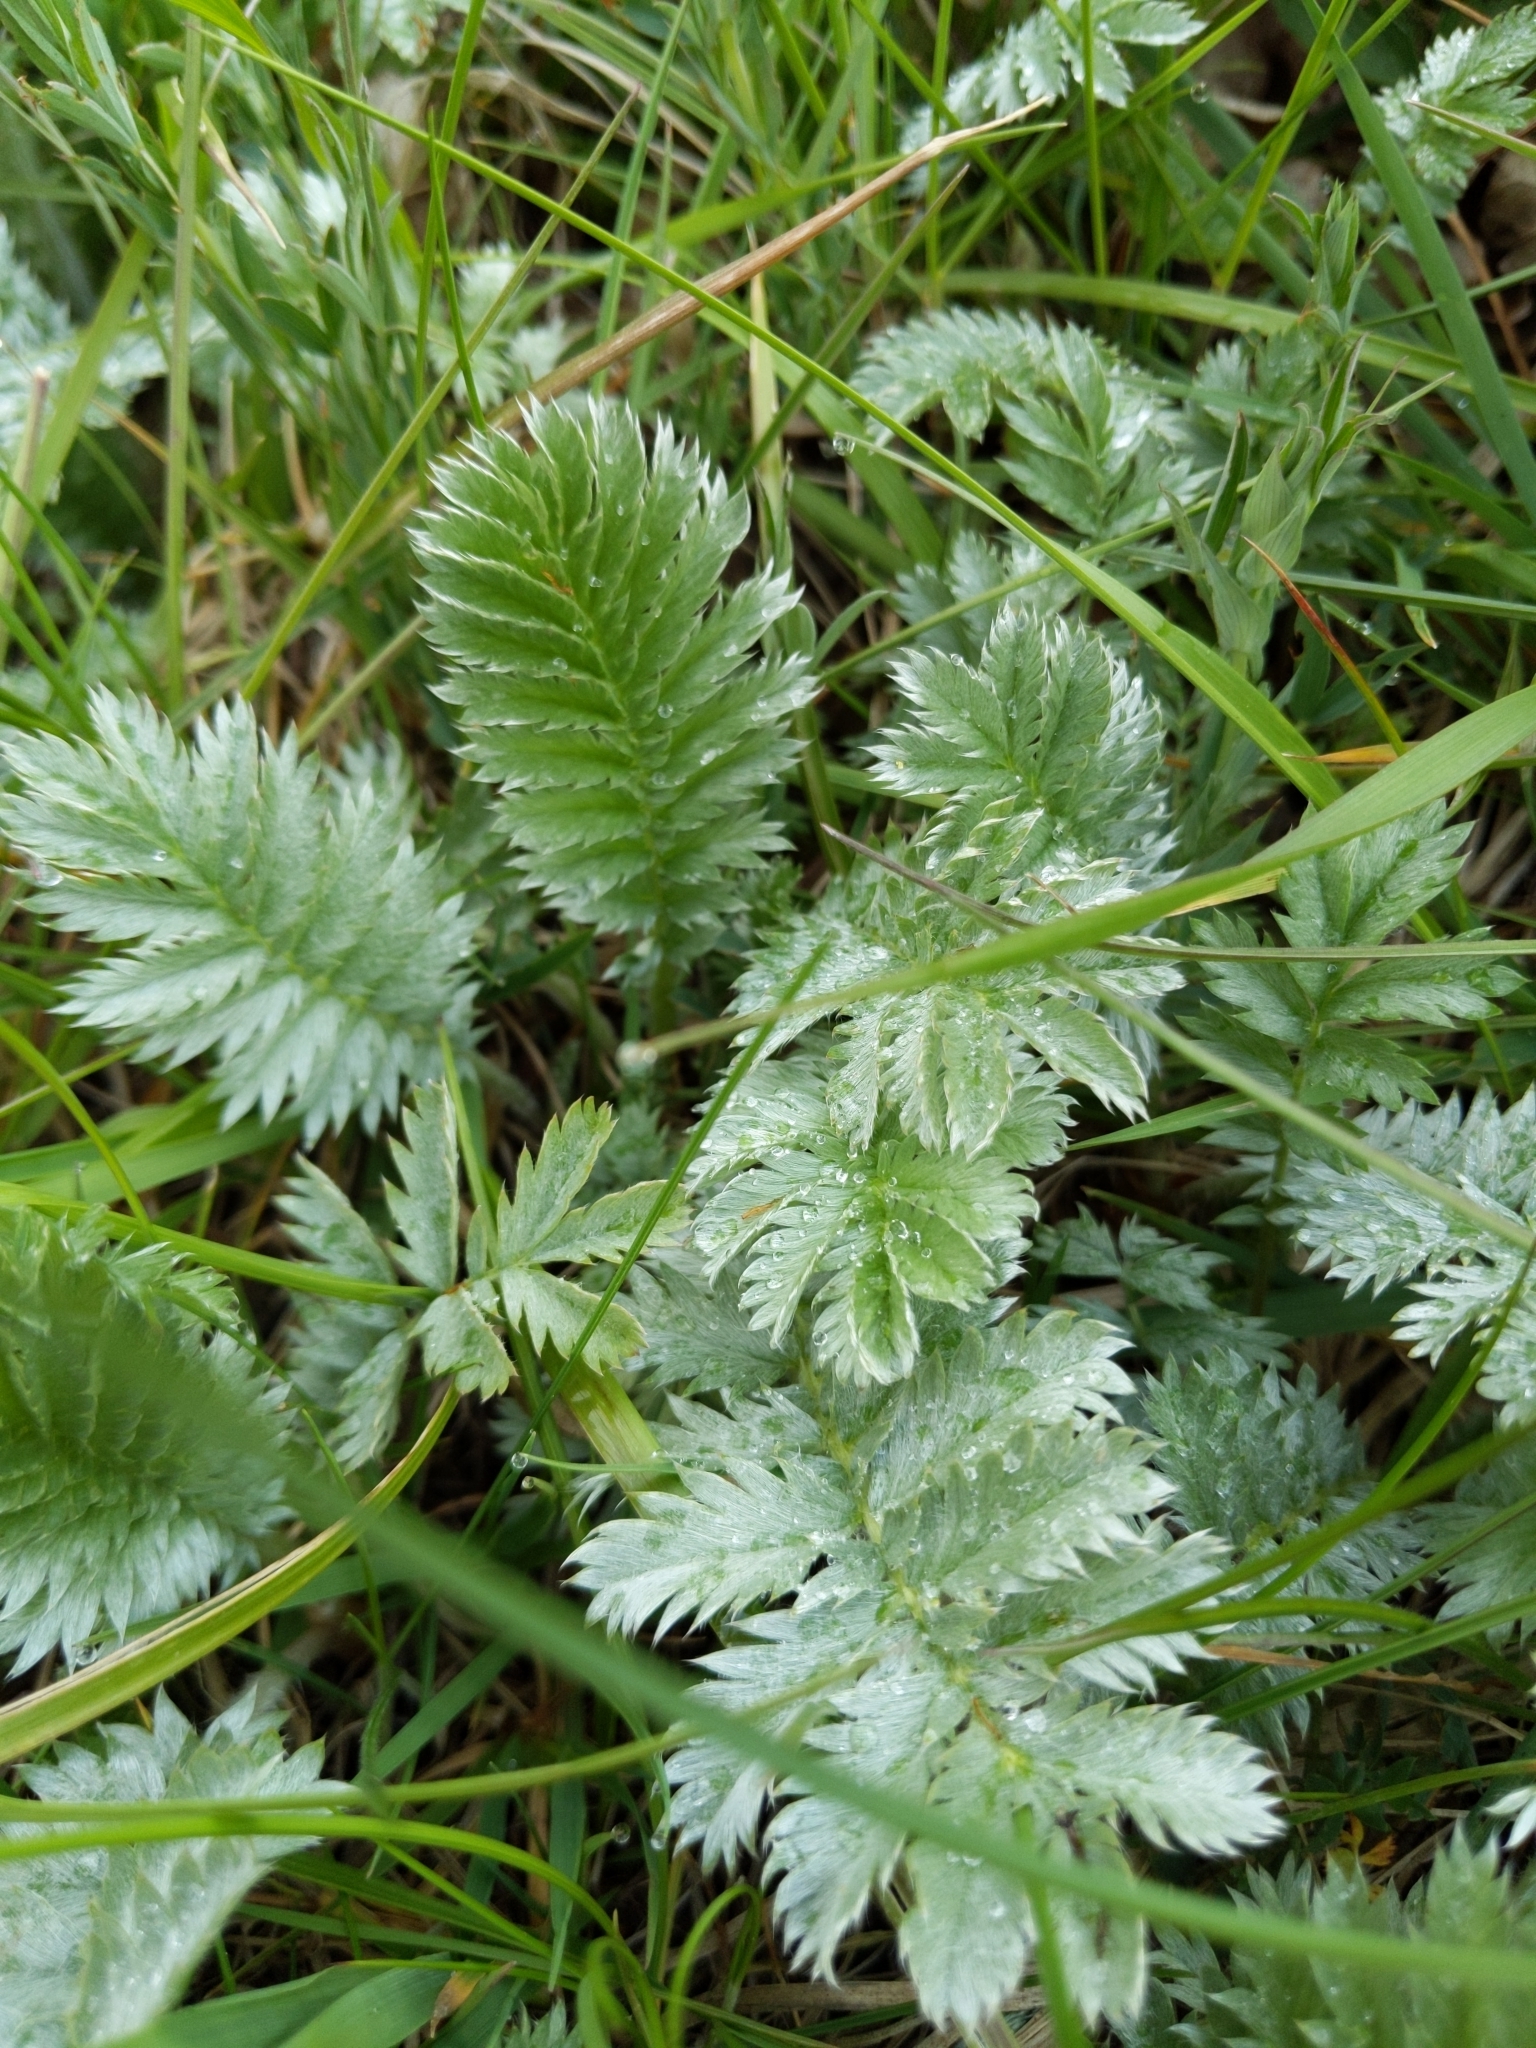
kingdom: Plantae
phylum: Tracheophyta
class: Magnoliopsida
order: Rosales
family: Rosaceae
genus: Argentina
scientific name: Argentina anserina
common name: Common silverweed
